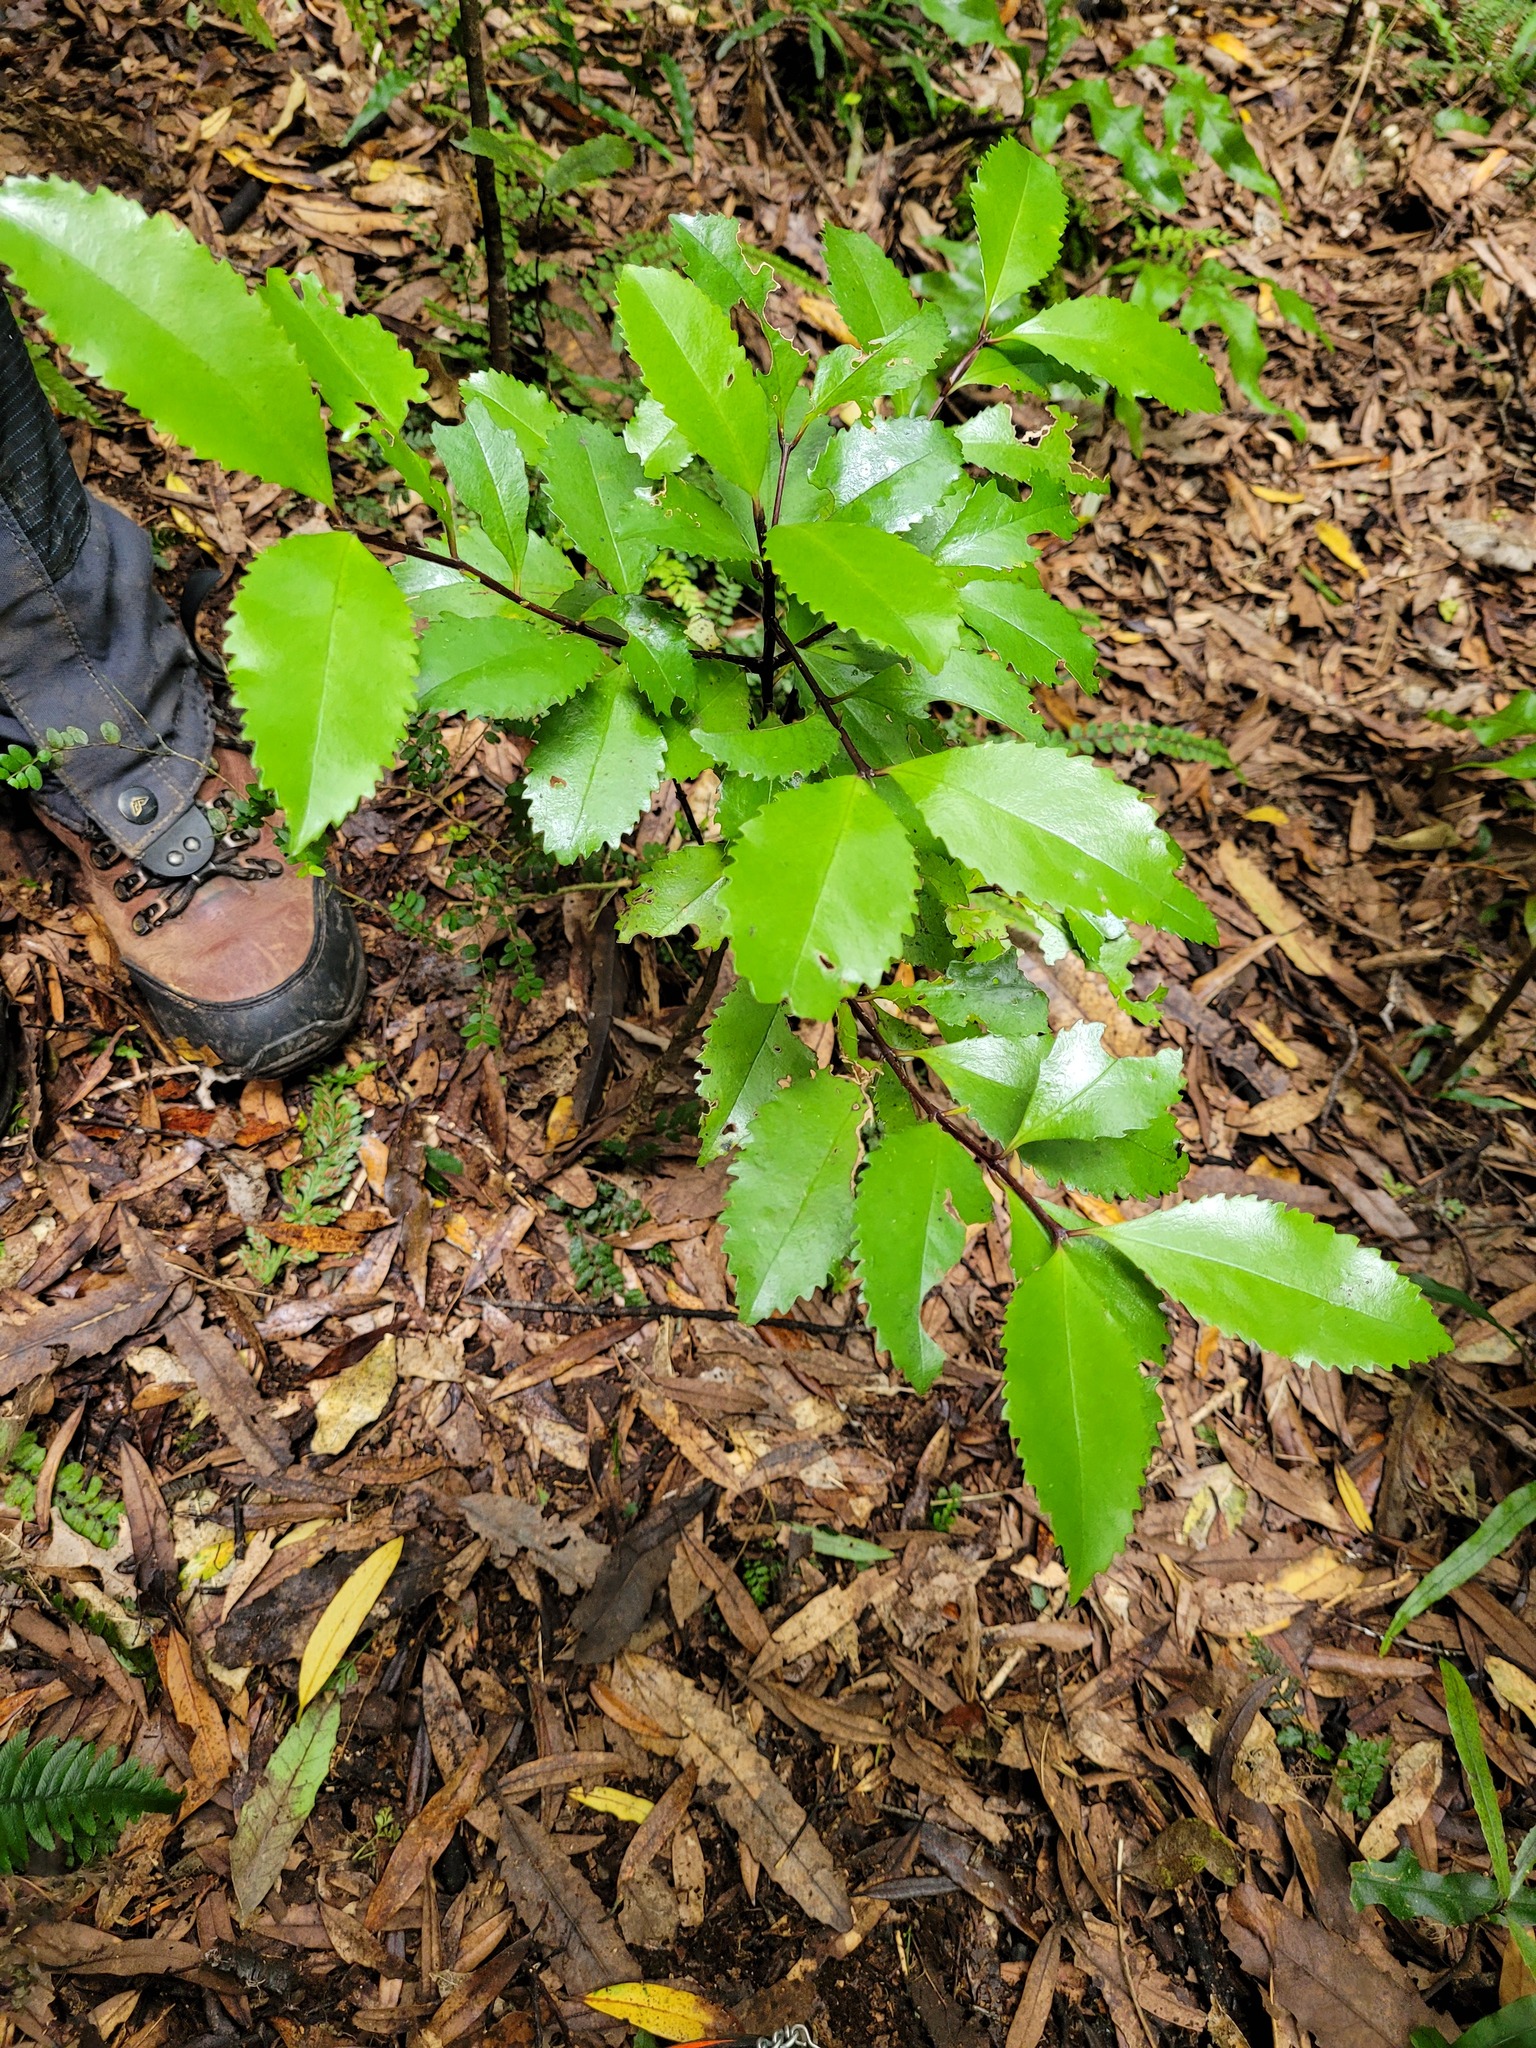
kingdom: Plantae
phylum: Tracheophyta
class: Magnoliopsida
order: Laurales
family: Atherospermataceae
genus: Laurelia
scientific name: Laurelia novae-zelandiae
